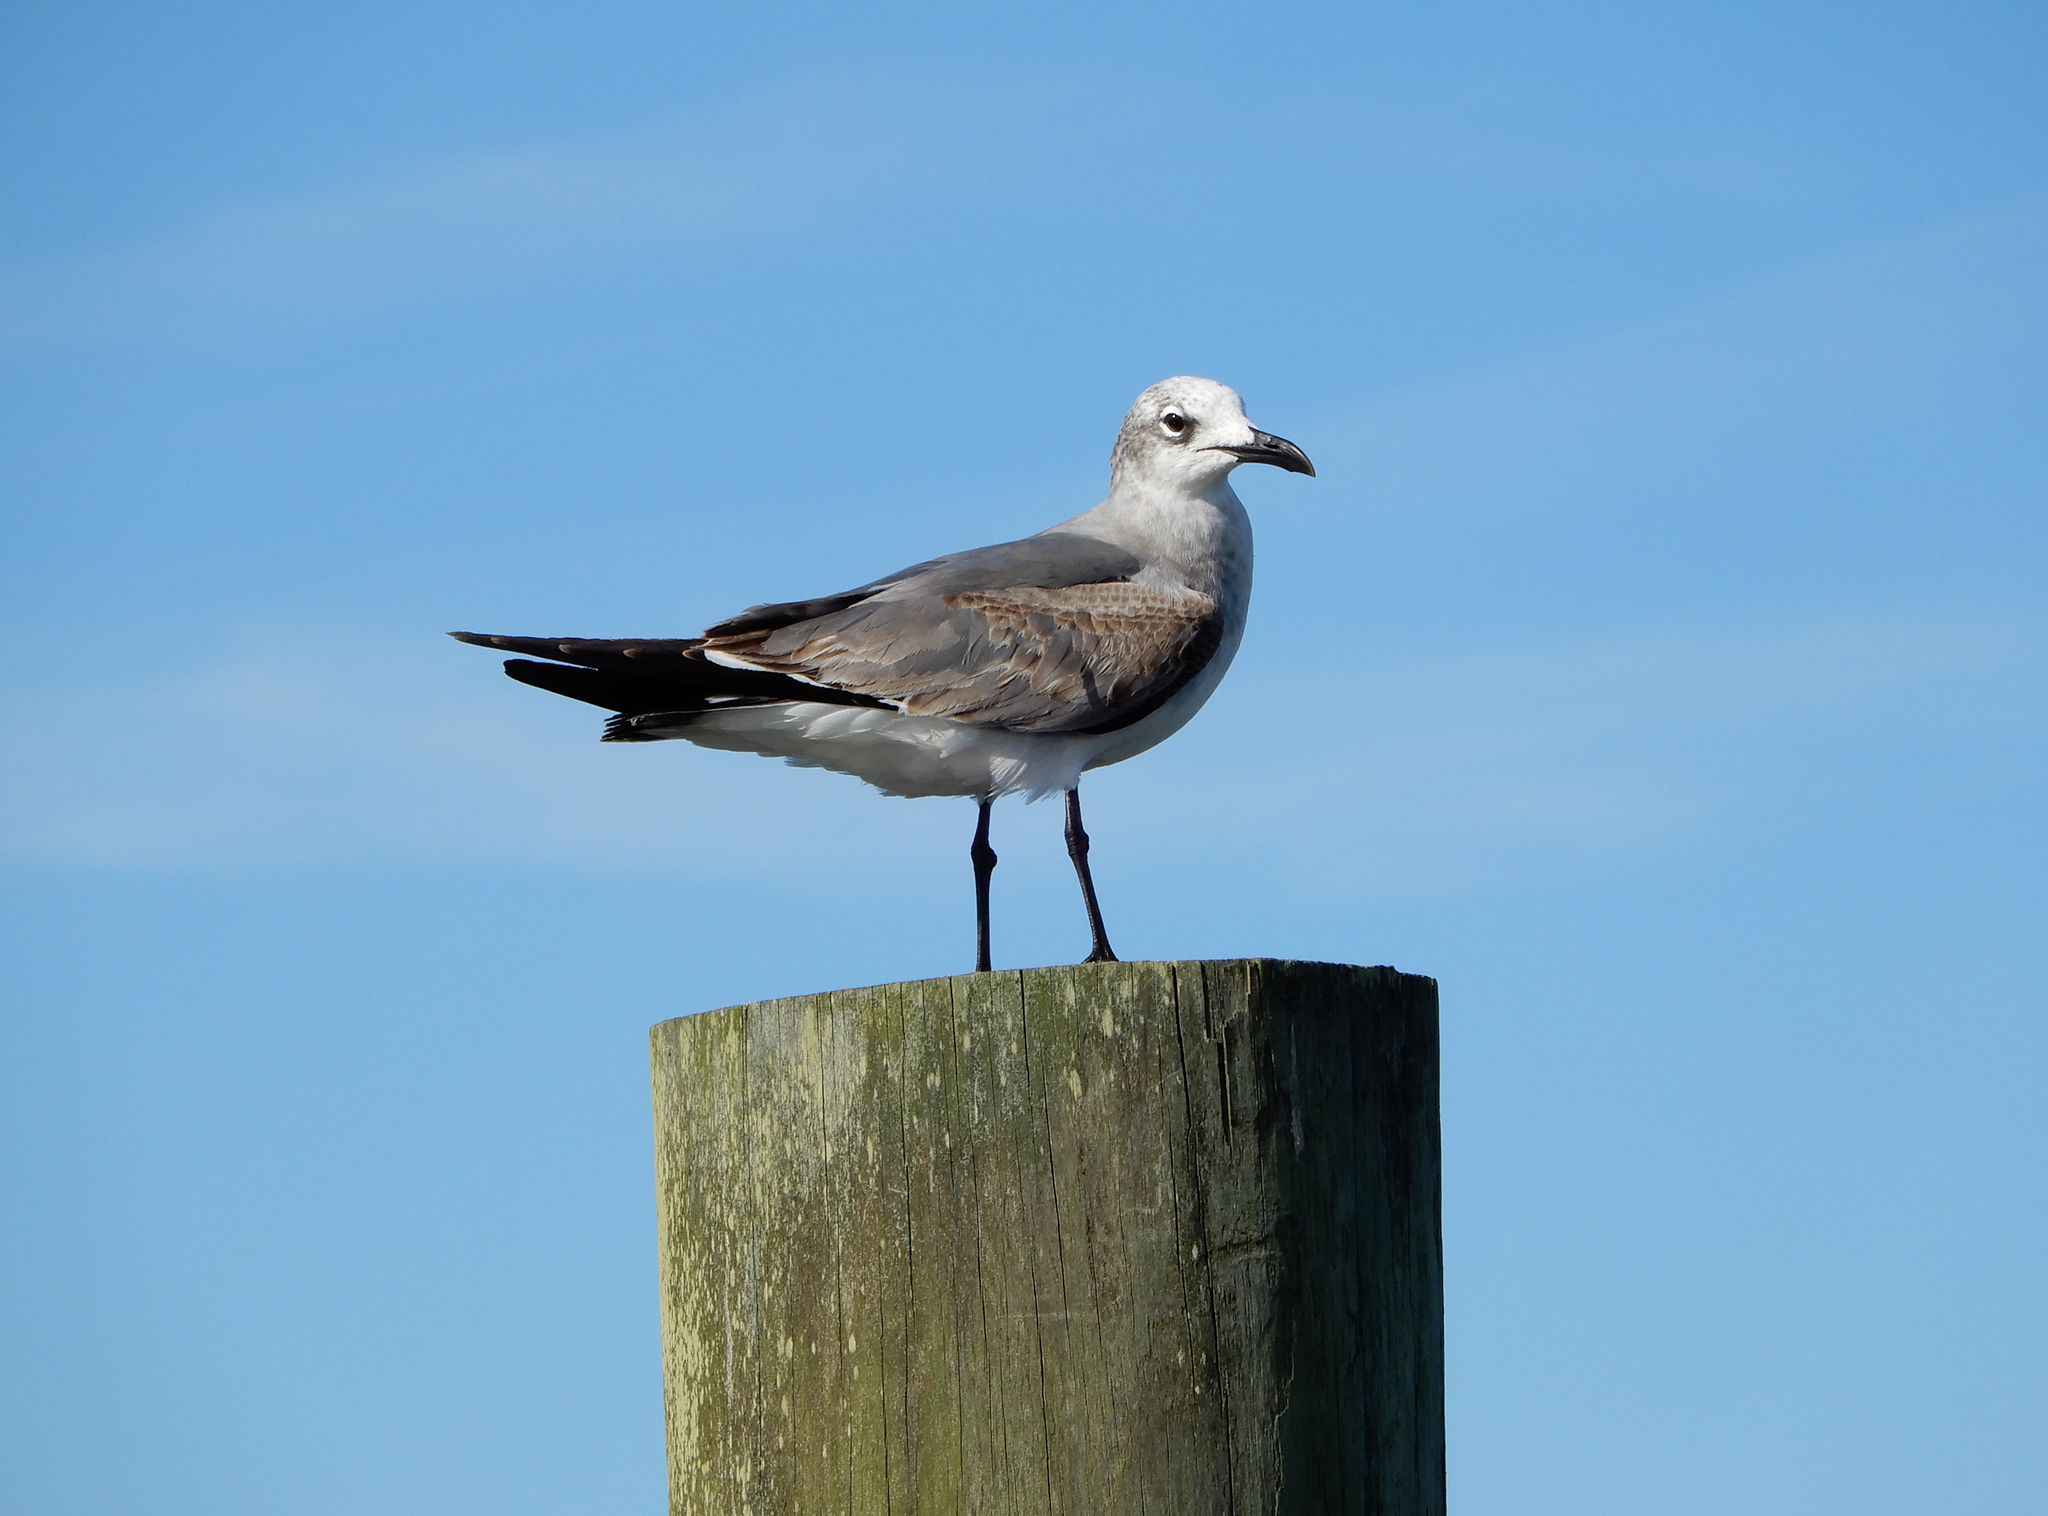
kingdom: Animalia
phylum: Chordata
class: Aves
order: Charadriiformes
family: Laridae
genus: Leucophaeus
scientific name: Leucophaeus atricilla
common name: Laughing gull
